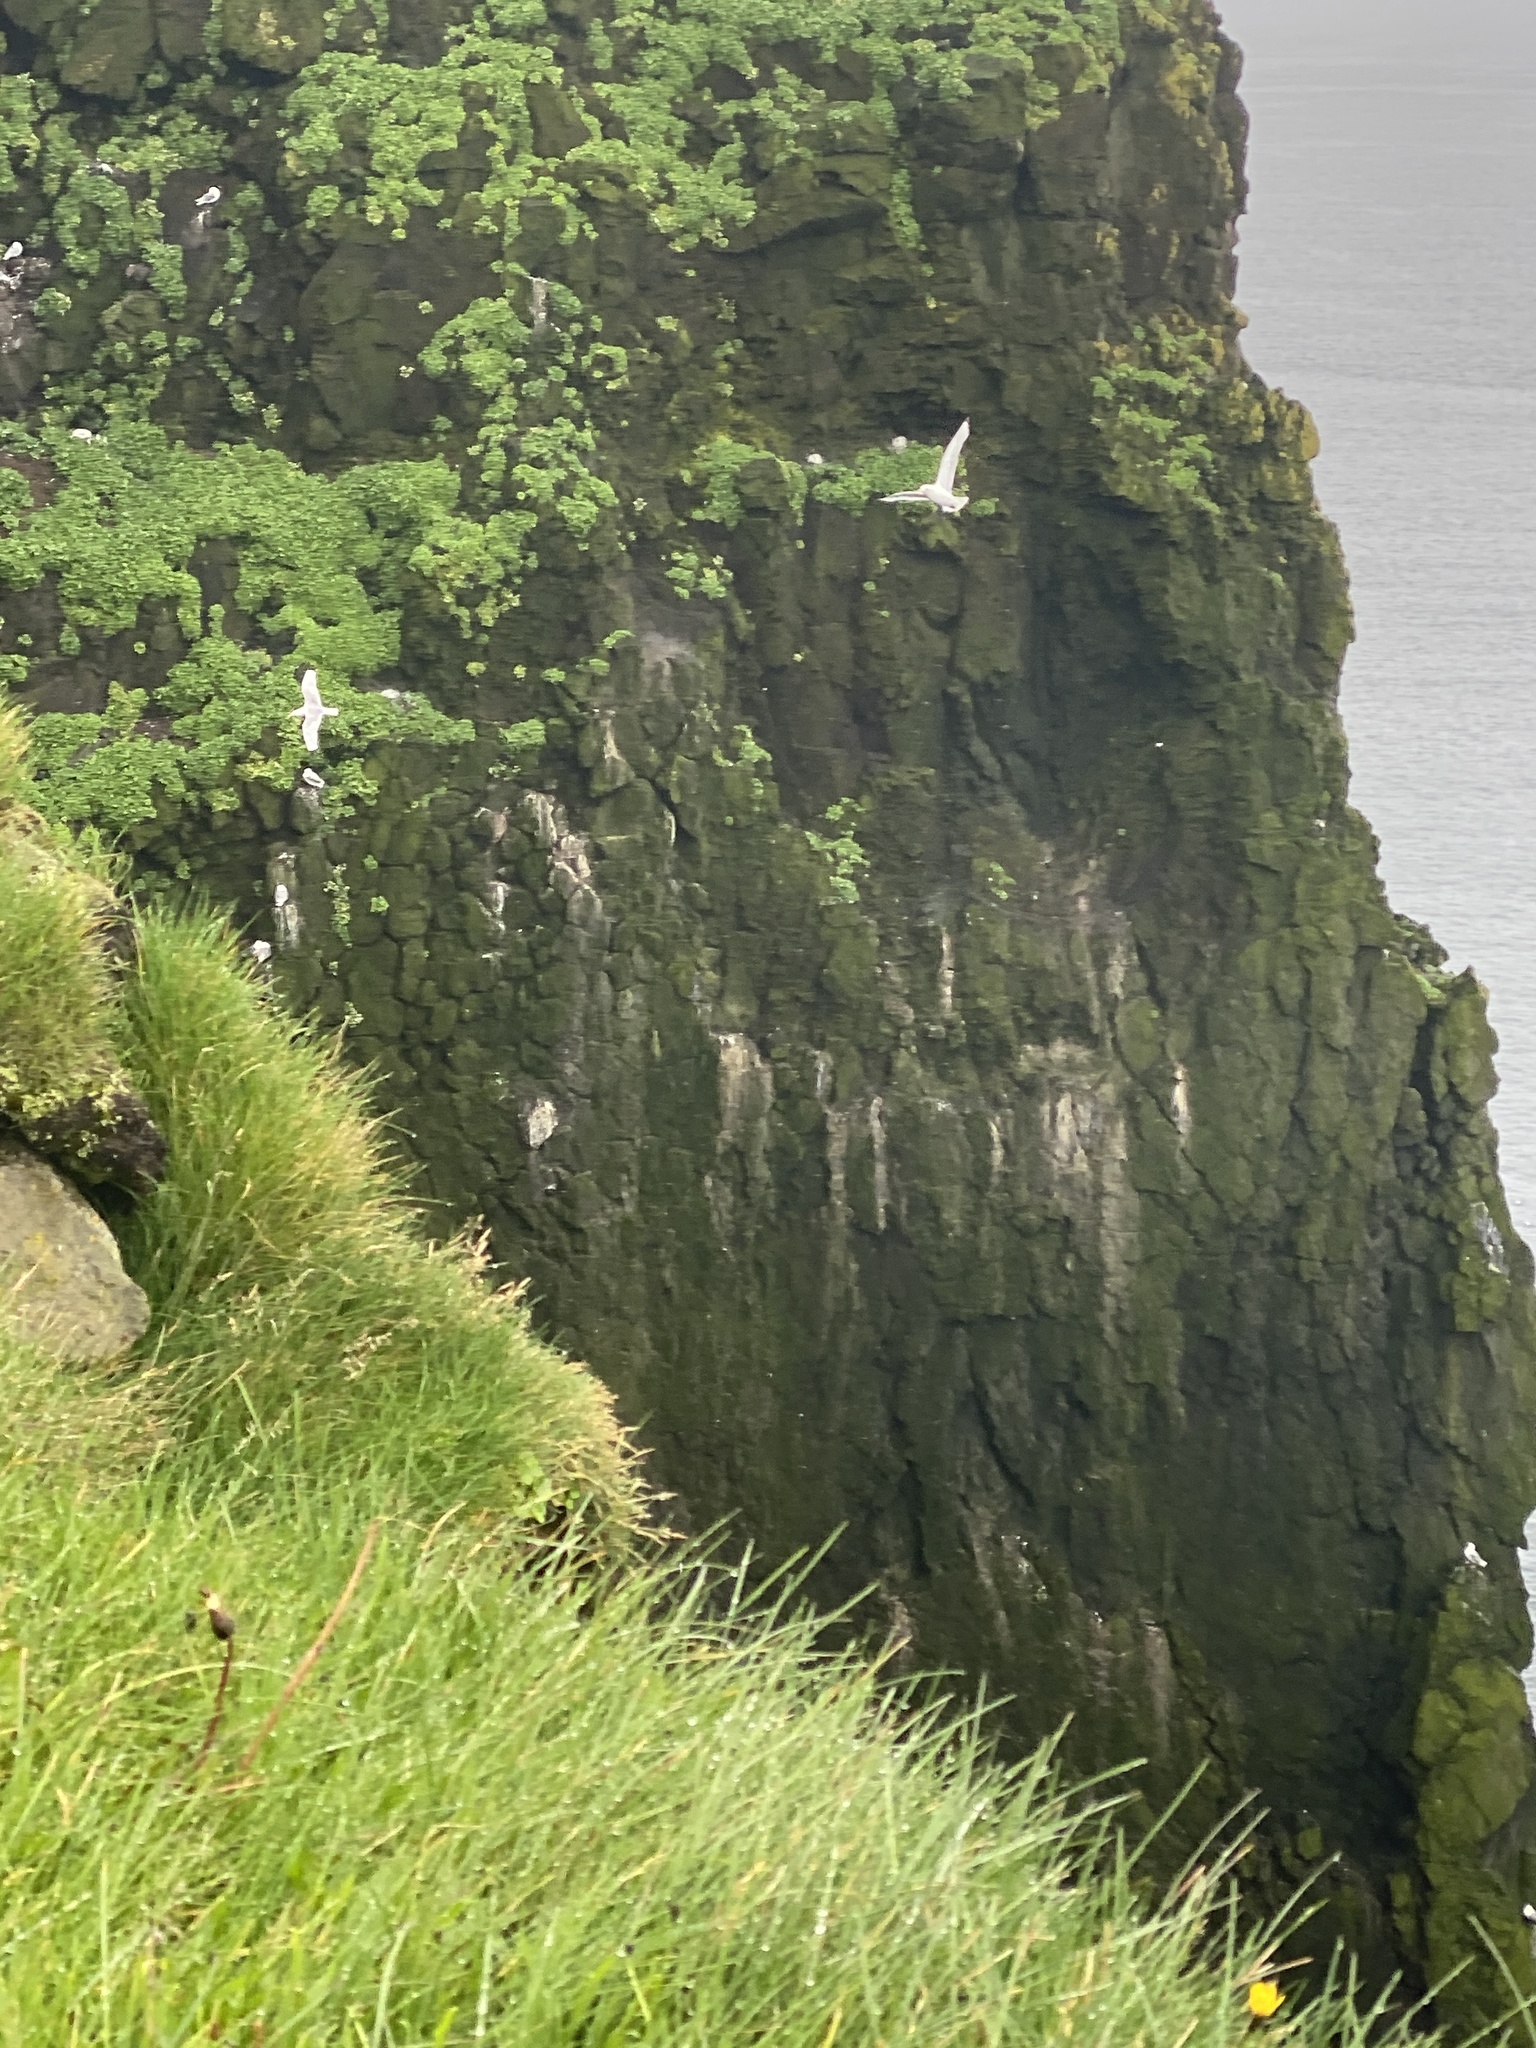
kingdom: Animalia
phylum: Chordata
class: Aves
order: Charadriiformes
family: Laridae
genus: Rissa
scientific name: Rissa tridactyla
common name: Black-legged kittiwake
